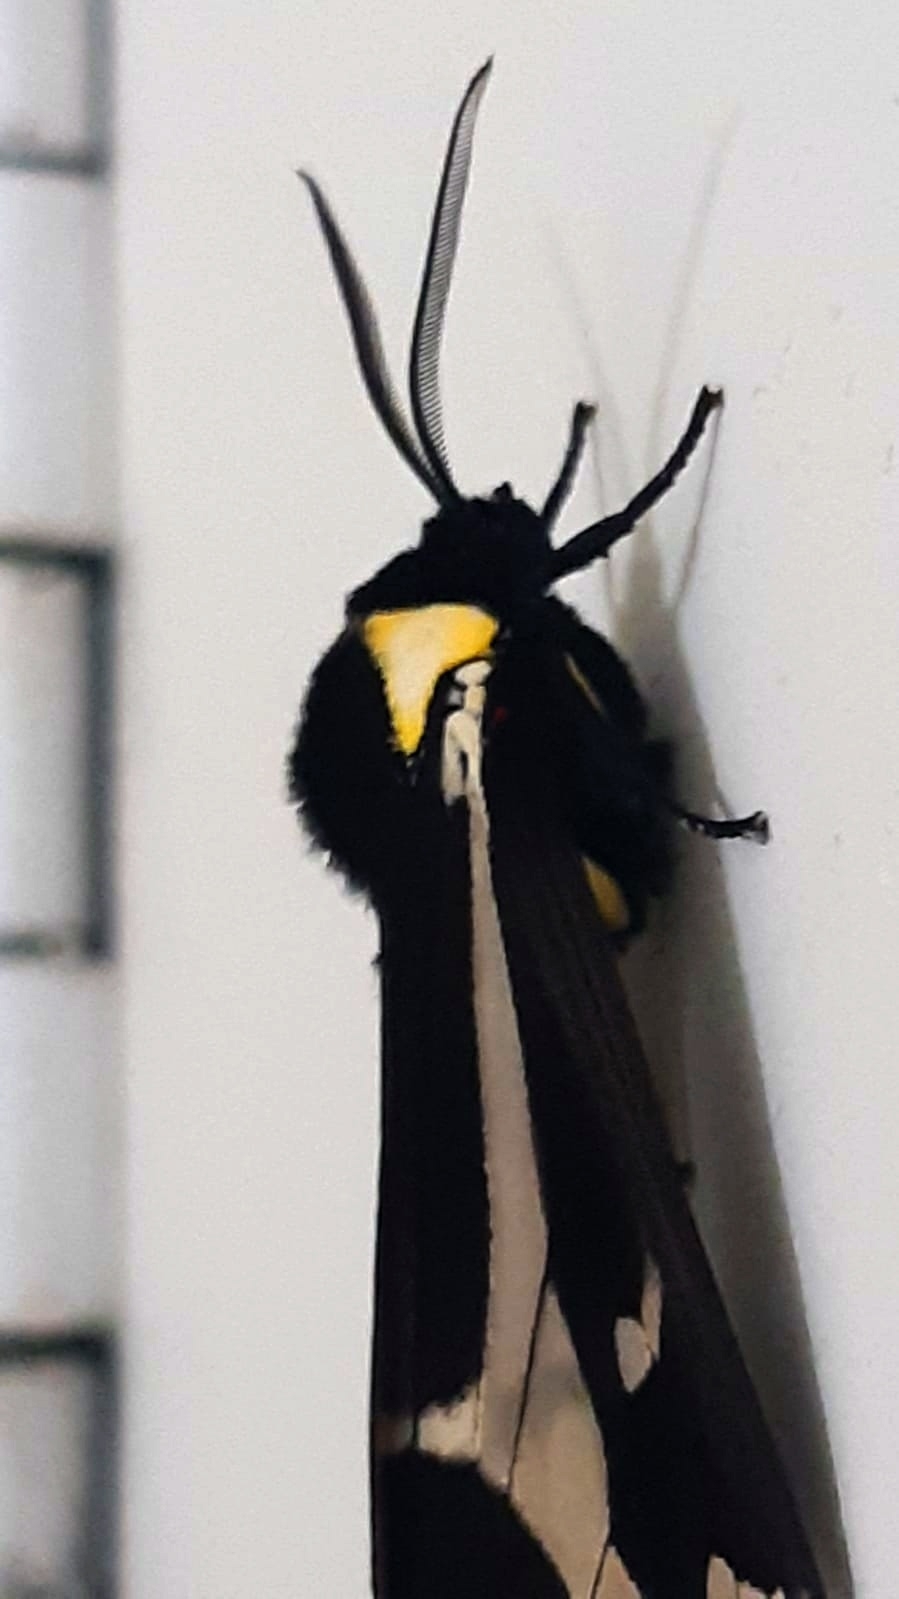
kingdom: Animalia
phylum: Arthropoda
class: Insecta
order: Lepidoptera
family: Erebidae
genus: Dysschema
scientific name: Dysschema howardi
